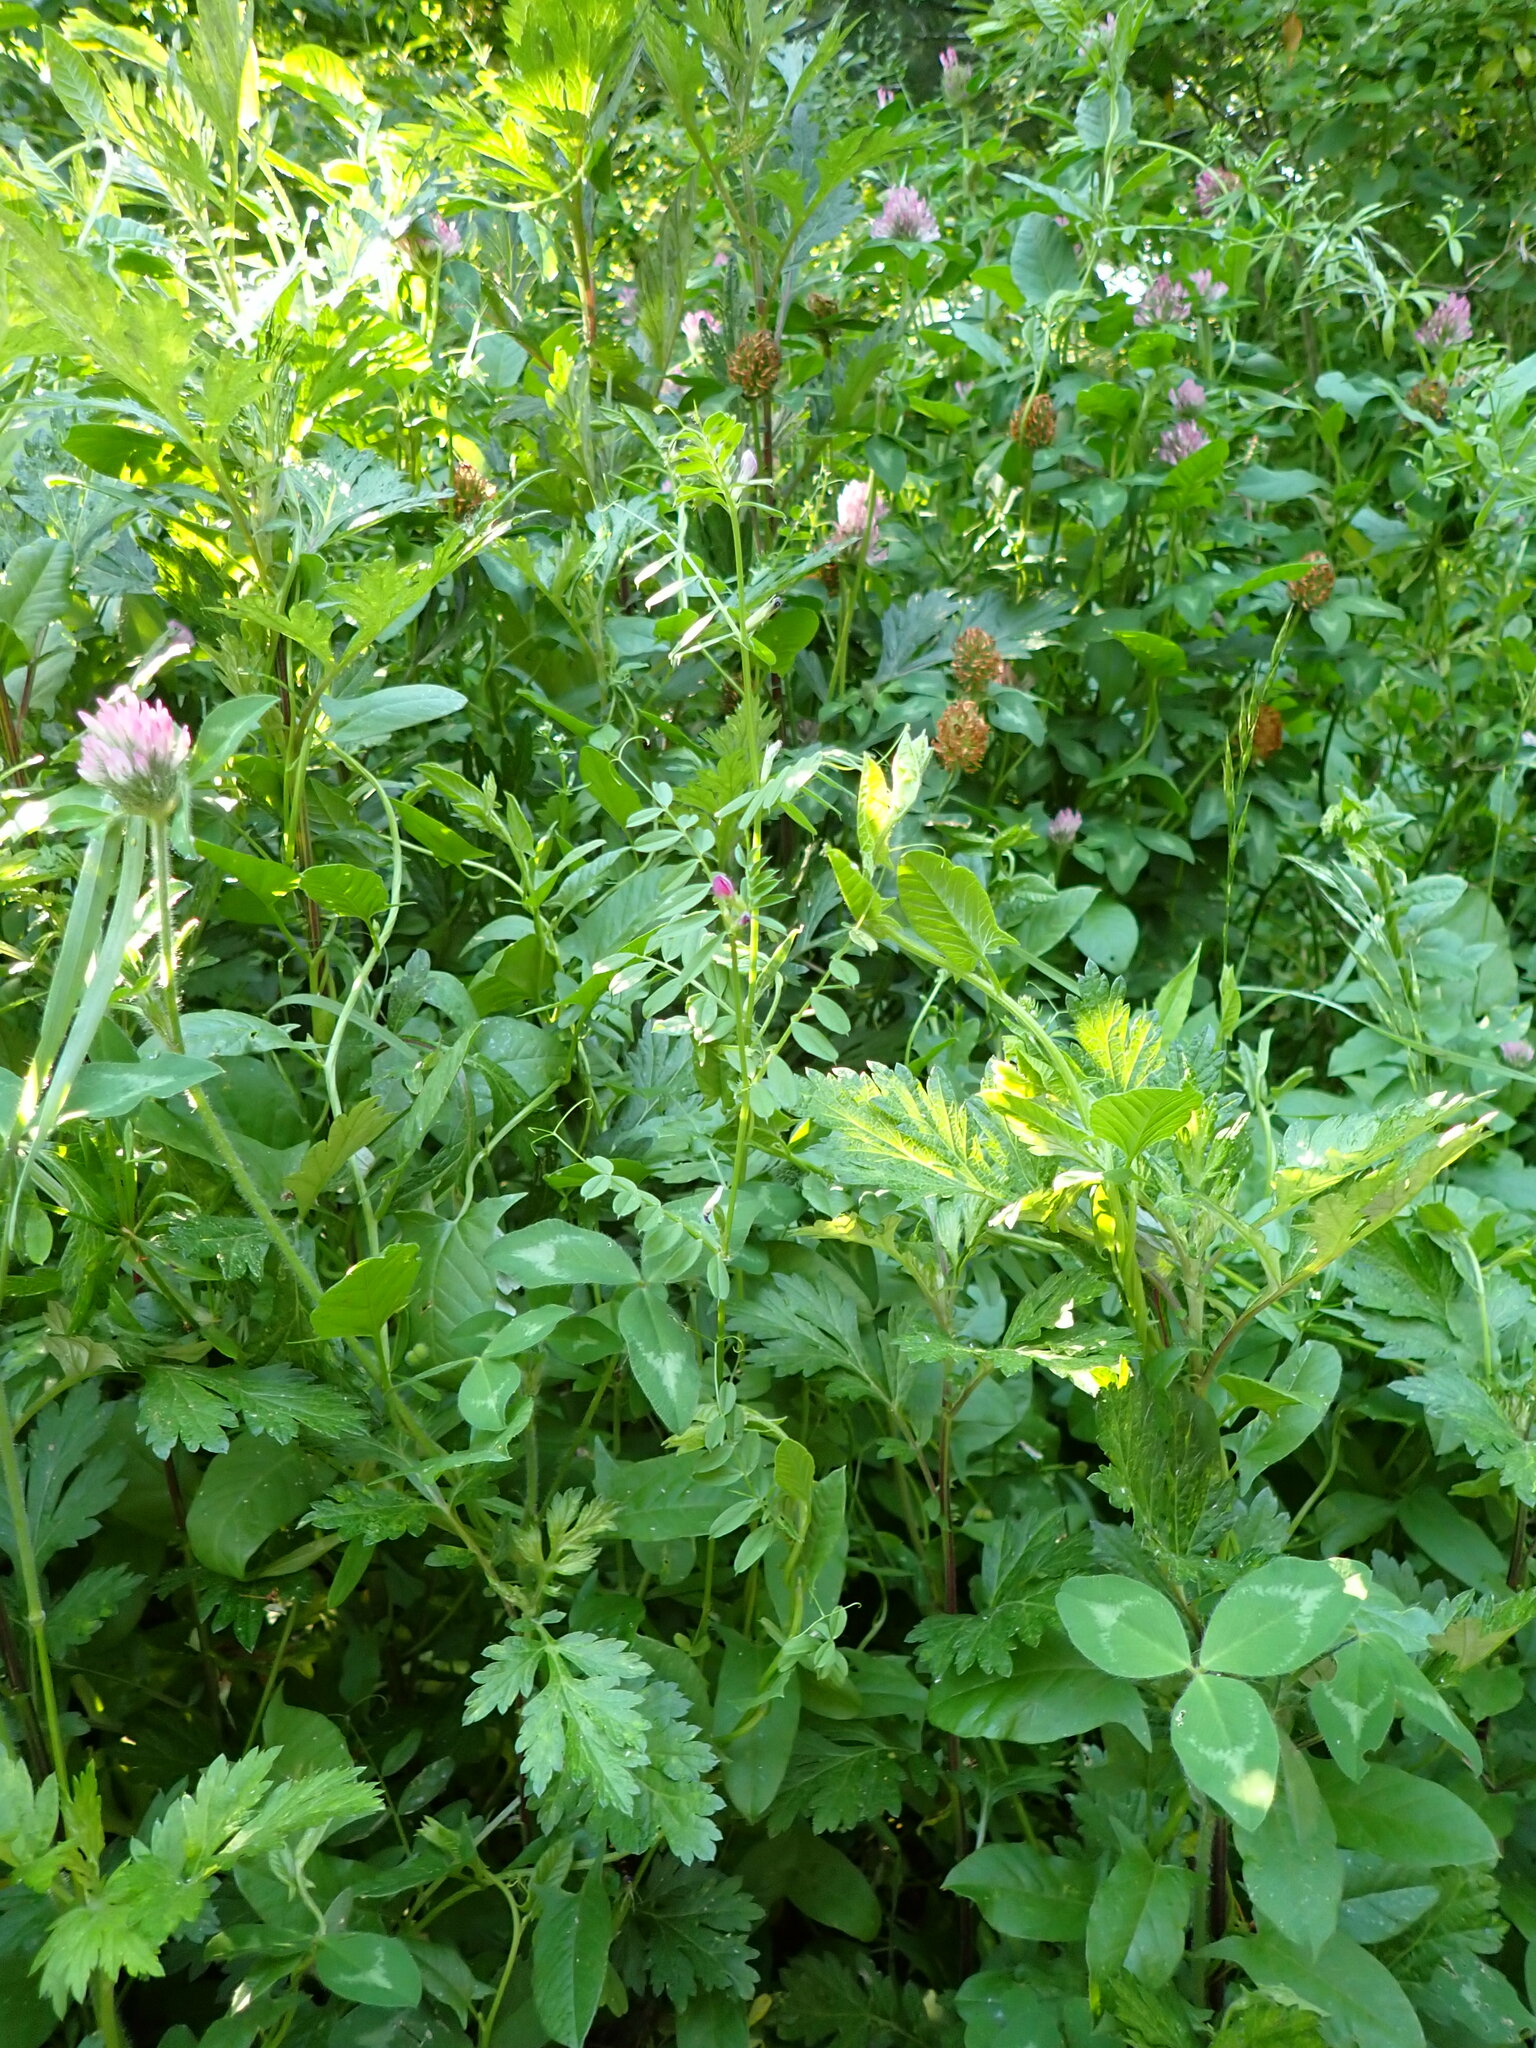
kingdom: Plantae
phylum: Tracheophyta
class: Magnoliopsida
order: Fabales
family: Fabaceae
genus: Vicia
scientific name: Vicia sativa
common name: Garden vetch
